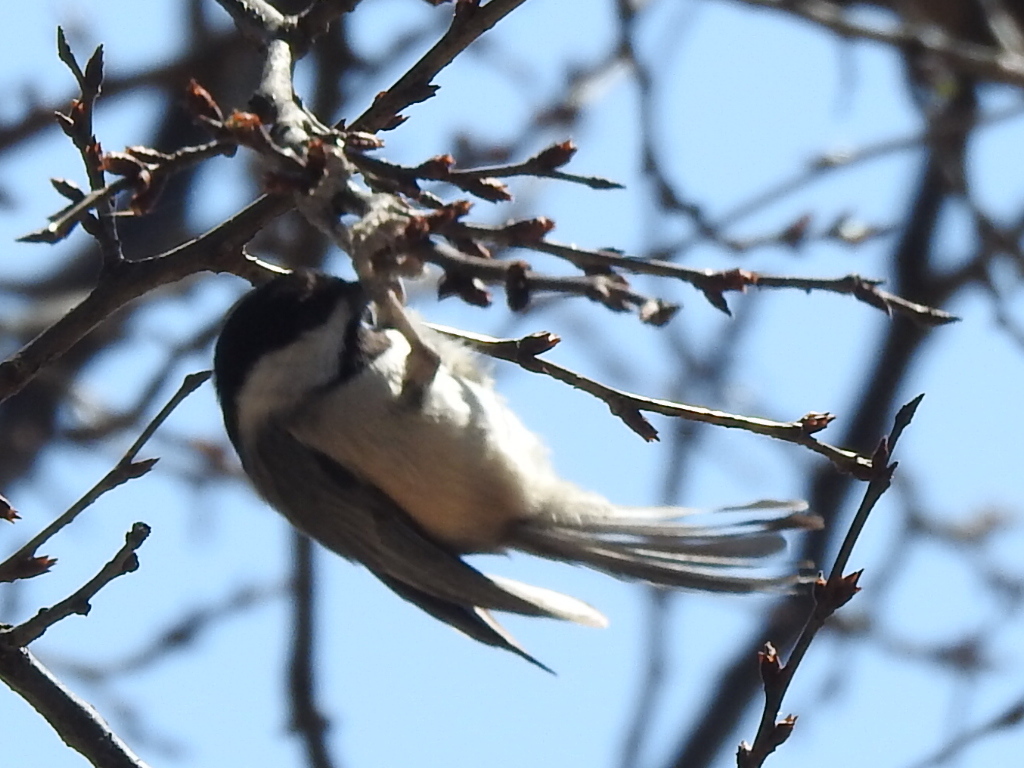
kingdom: Animalia
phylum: Chordata
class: Aves
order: Passeriformes
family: Paridae
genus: Poecile
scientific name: Poecile carolinensis
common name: Carolina chickadee
